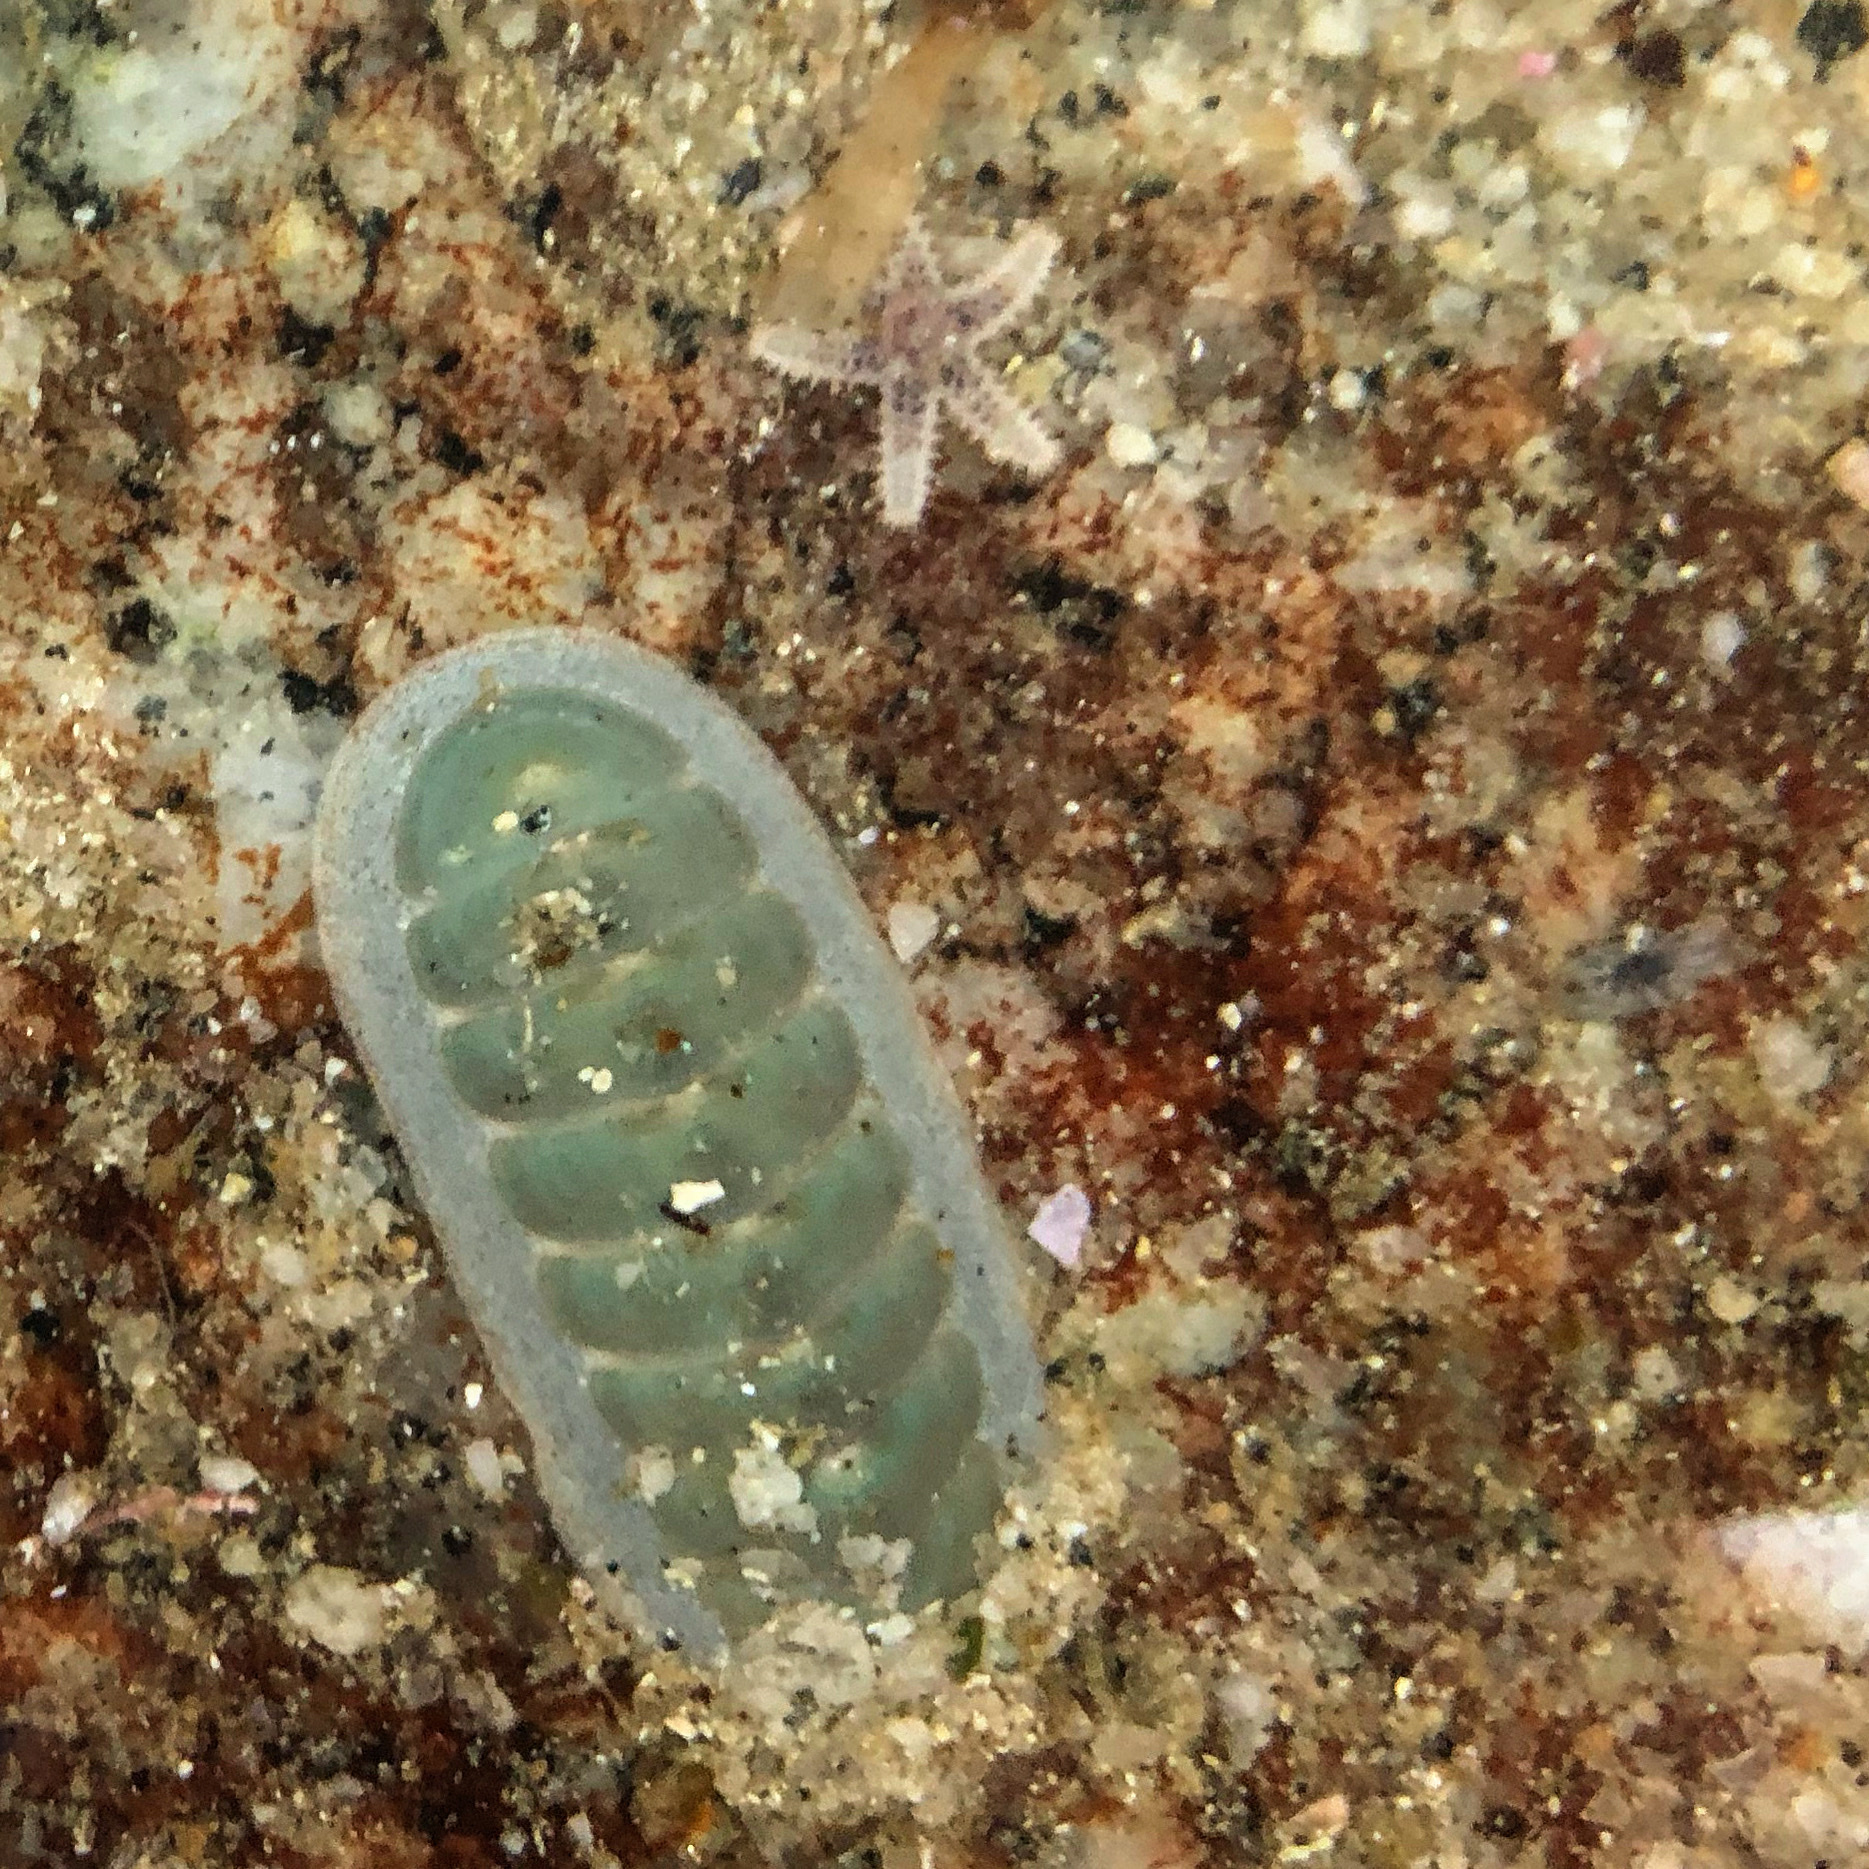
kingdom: Animalia
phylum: Mollusca
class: Polyplacophora
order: Chitonida
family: Ischnochitonidae
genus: Tripoplax
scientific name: Tripoplax regularis
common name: Regular chiton
